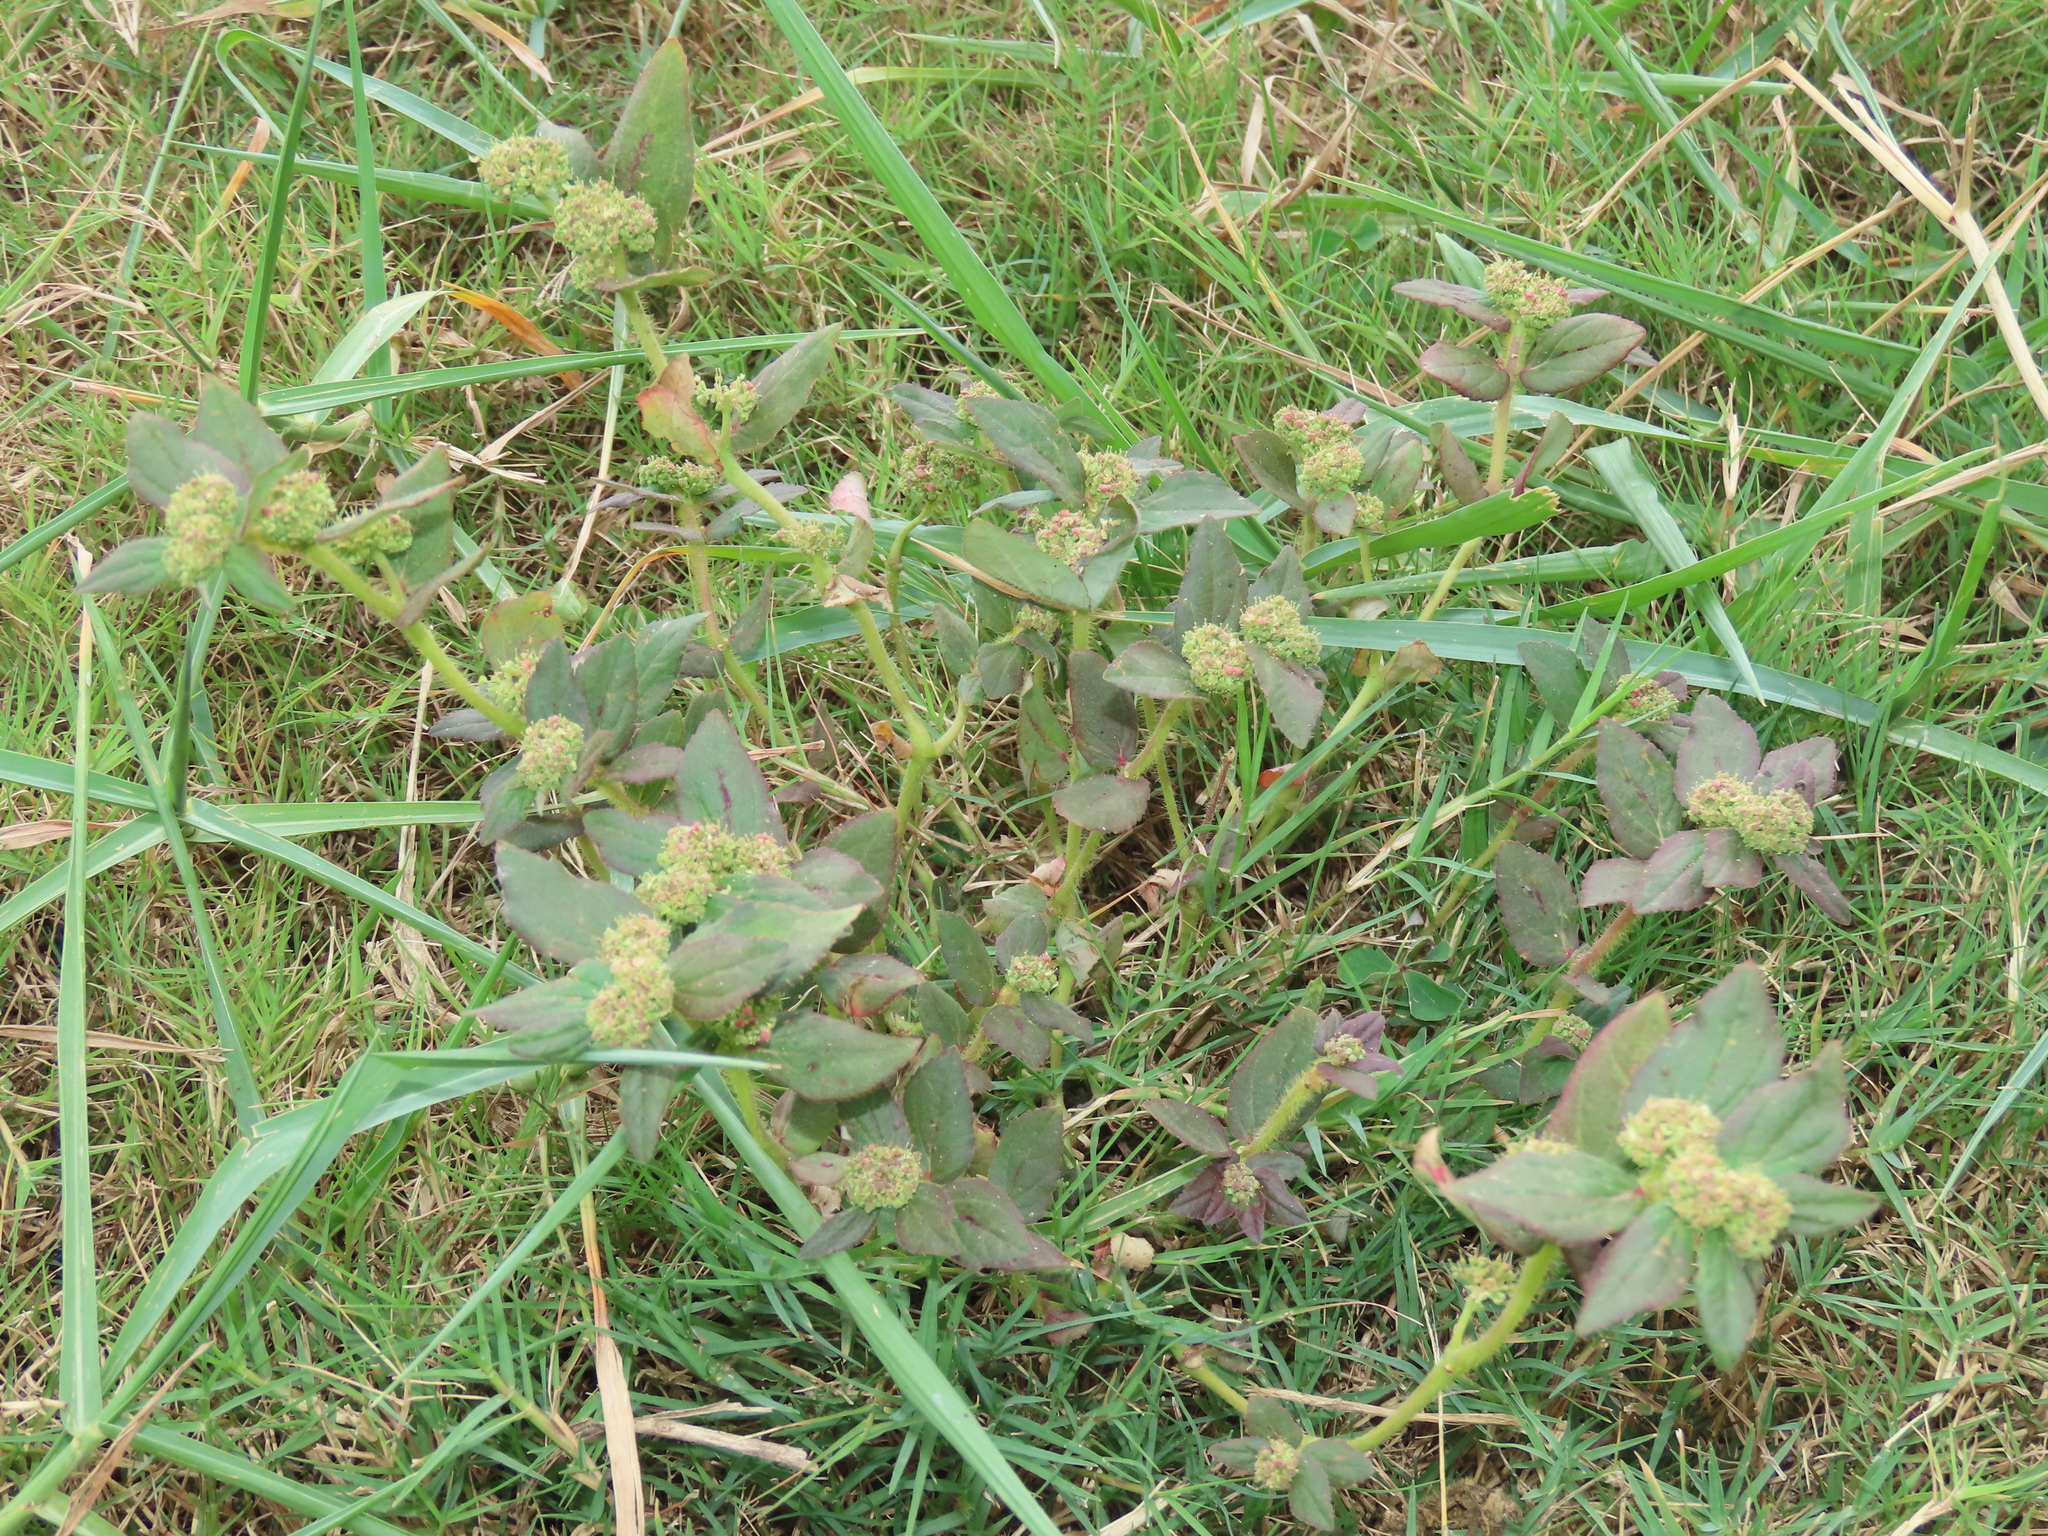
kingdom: Plantae
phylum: Tracheophyta
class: Magnoliopsida
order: Malpighiales
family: Euphorbiaceae
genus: Euphorbia
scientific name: Euphorbia hirta
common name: Pillpod sandmat
